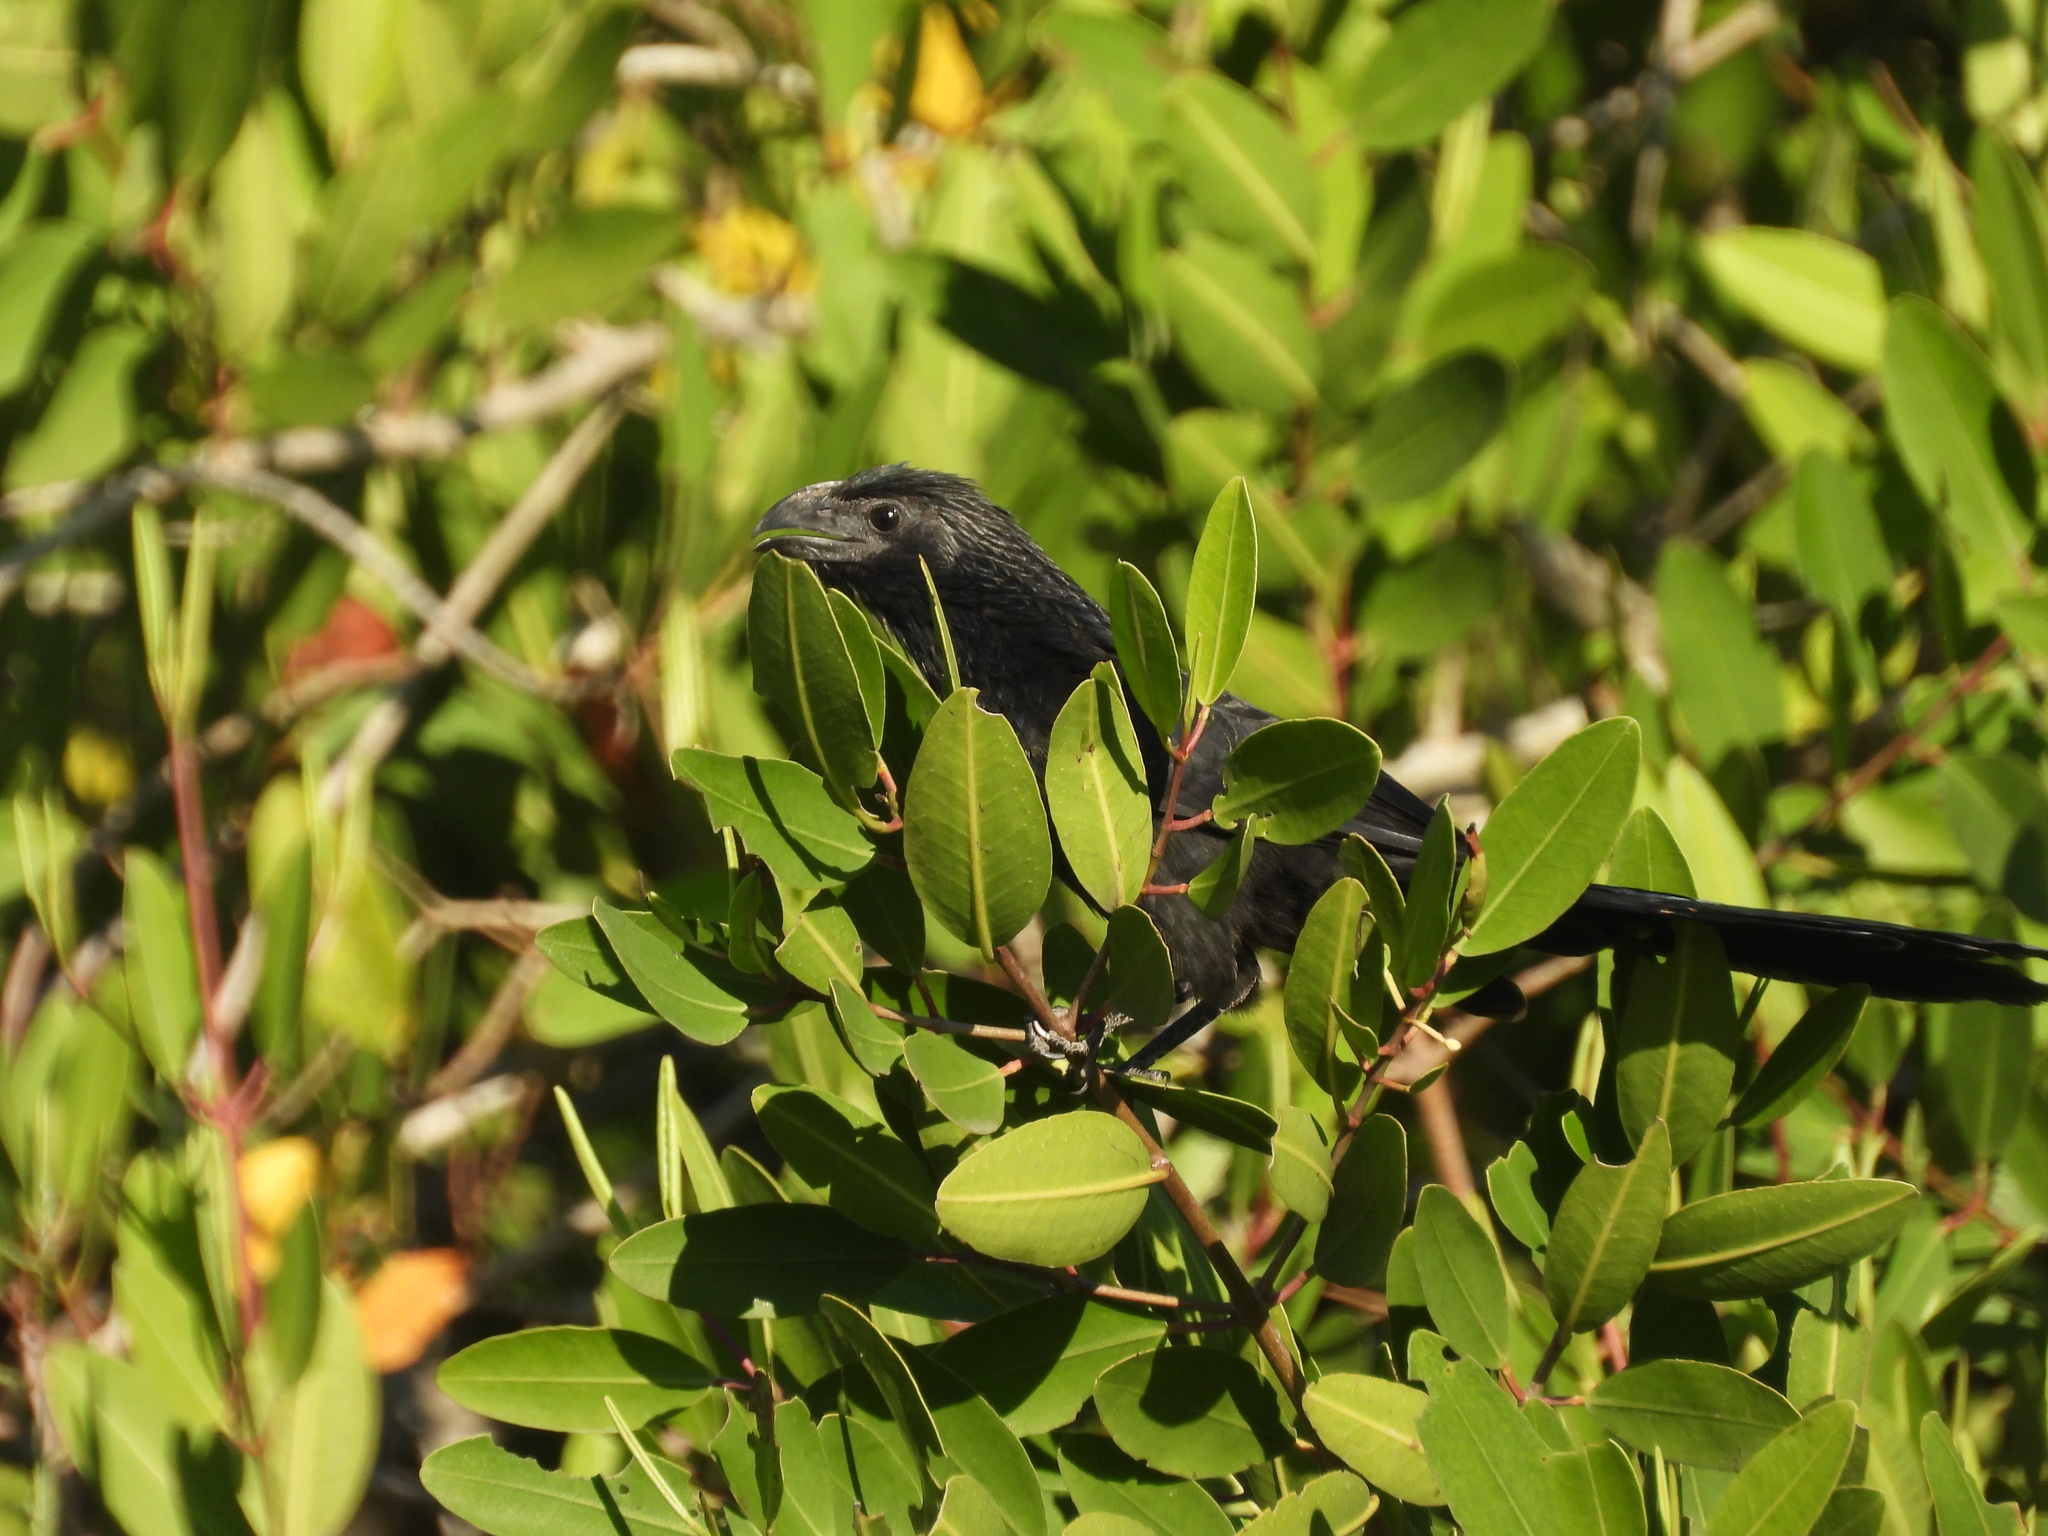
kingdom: Animalia
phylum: Chordata
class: Aves
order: Cuculiformes
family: Cuculidae
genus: Crotophaga
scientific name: Crotophaga sulcirostris
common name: Groove-billed ani
